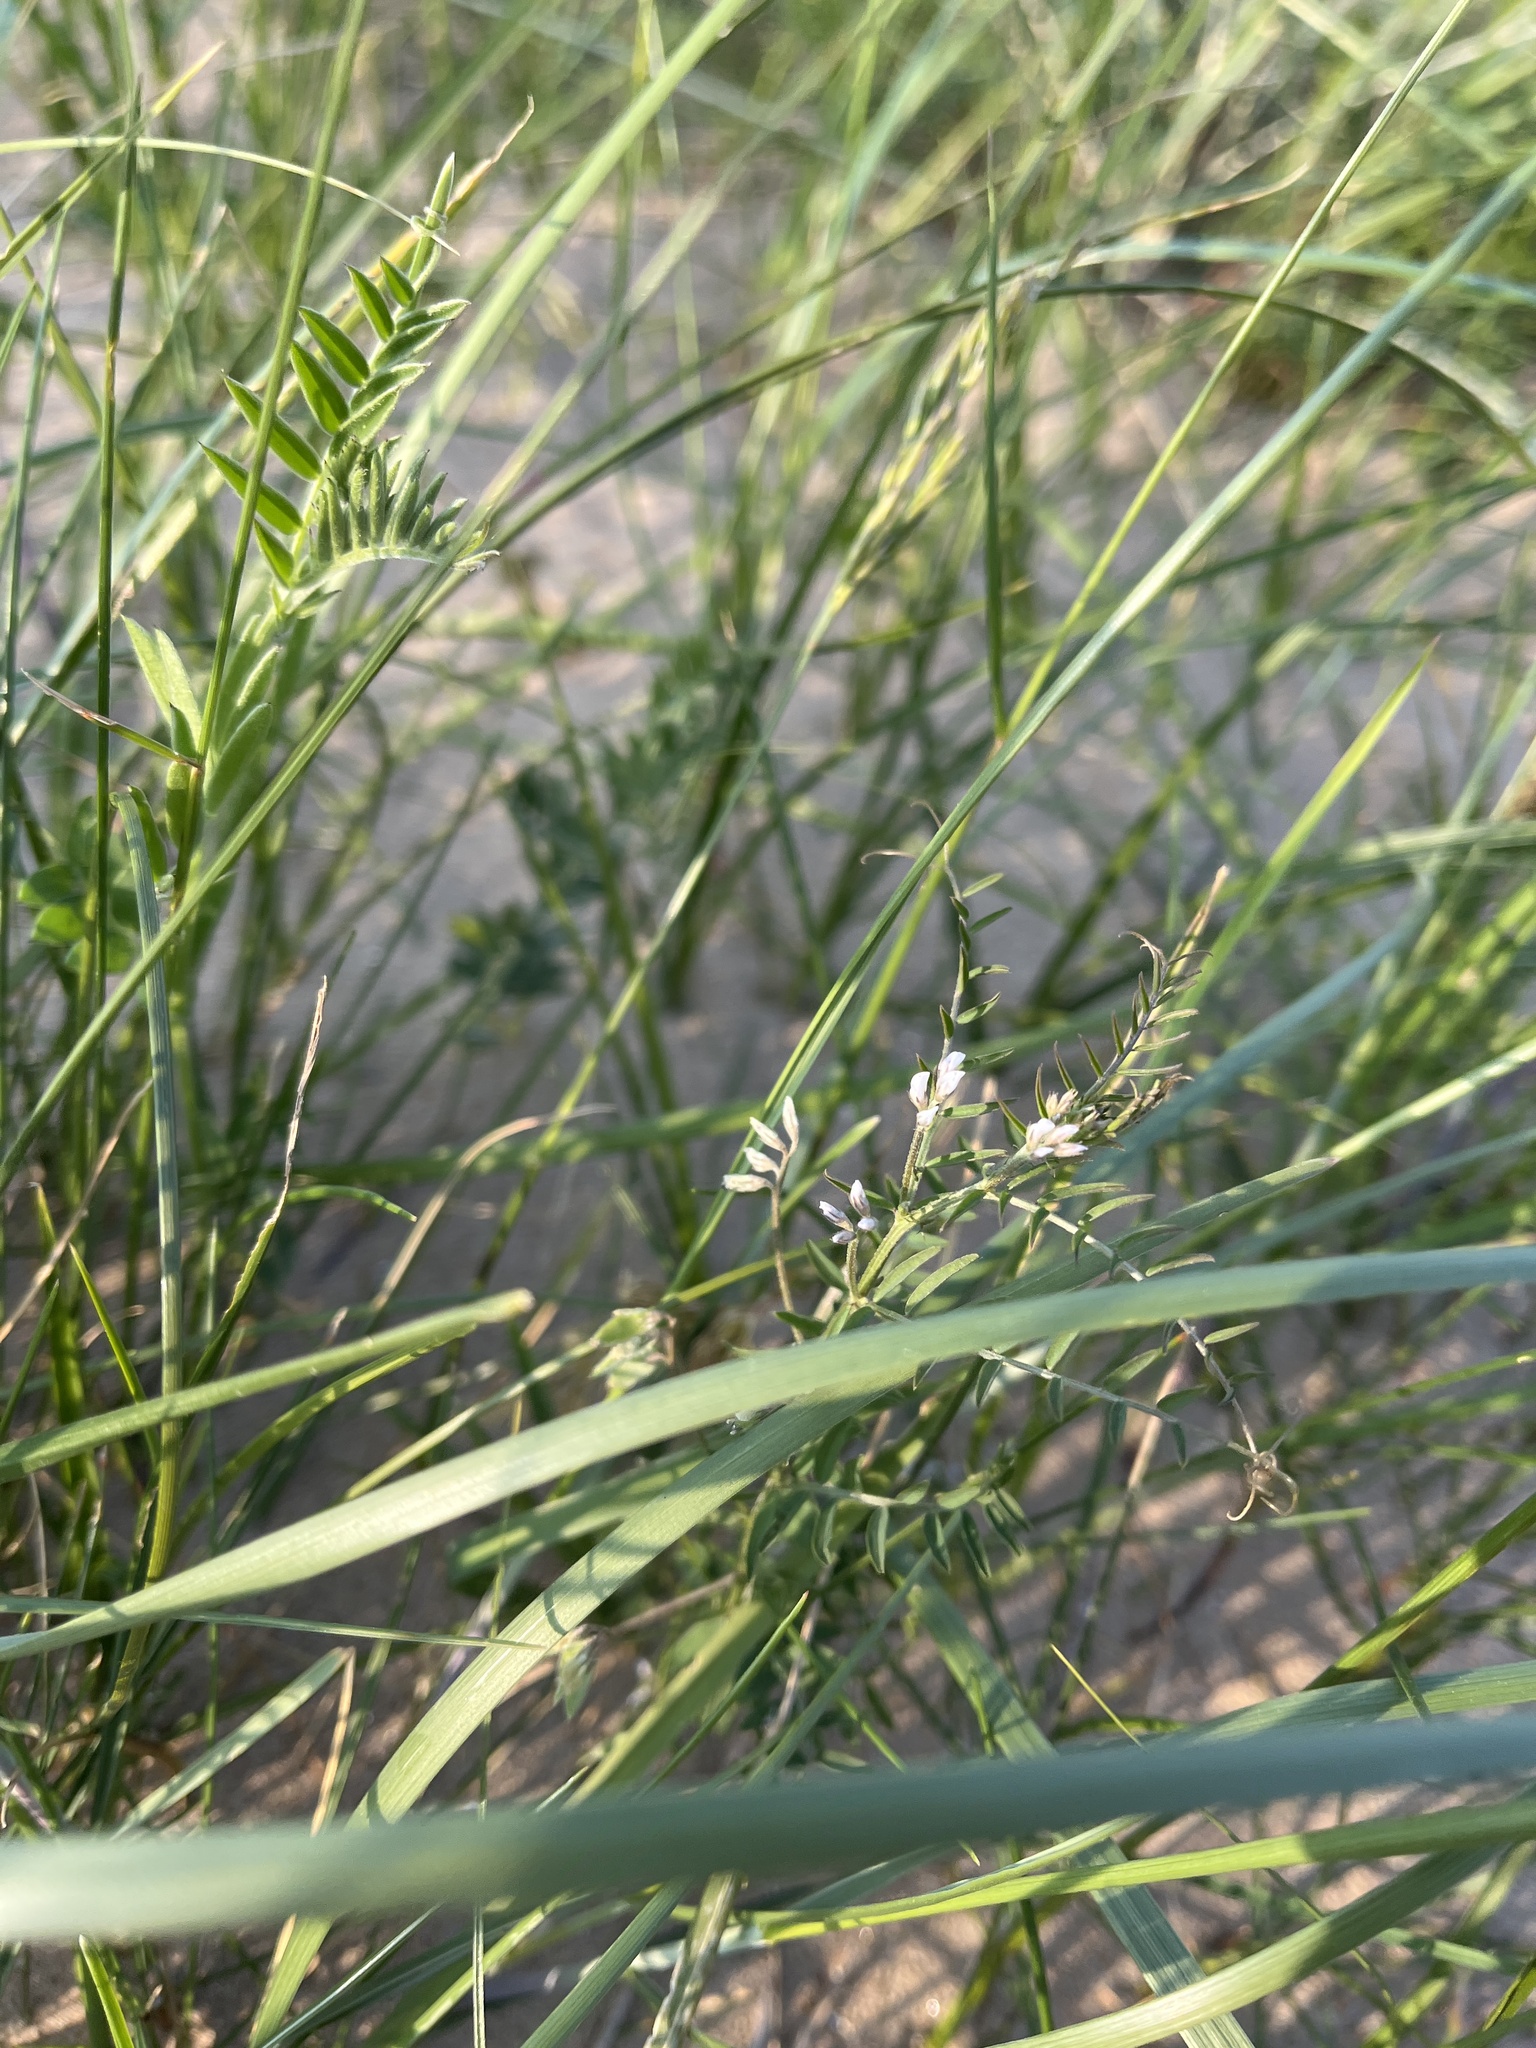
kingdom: Plantae
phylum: Tracheophyta
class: Magnoliopsida
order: Fabales
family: Fabaceae
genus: Vicia
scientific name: Vicia hirsuta
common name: Tiny vetch
